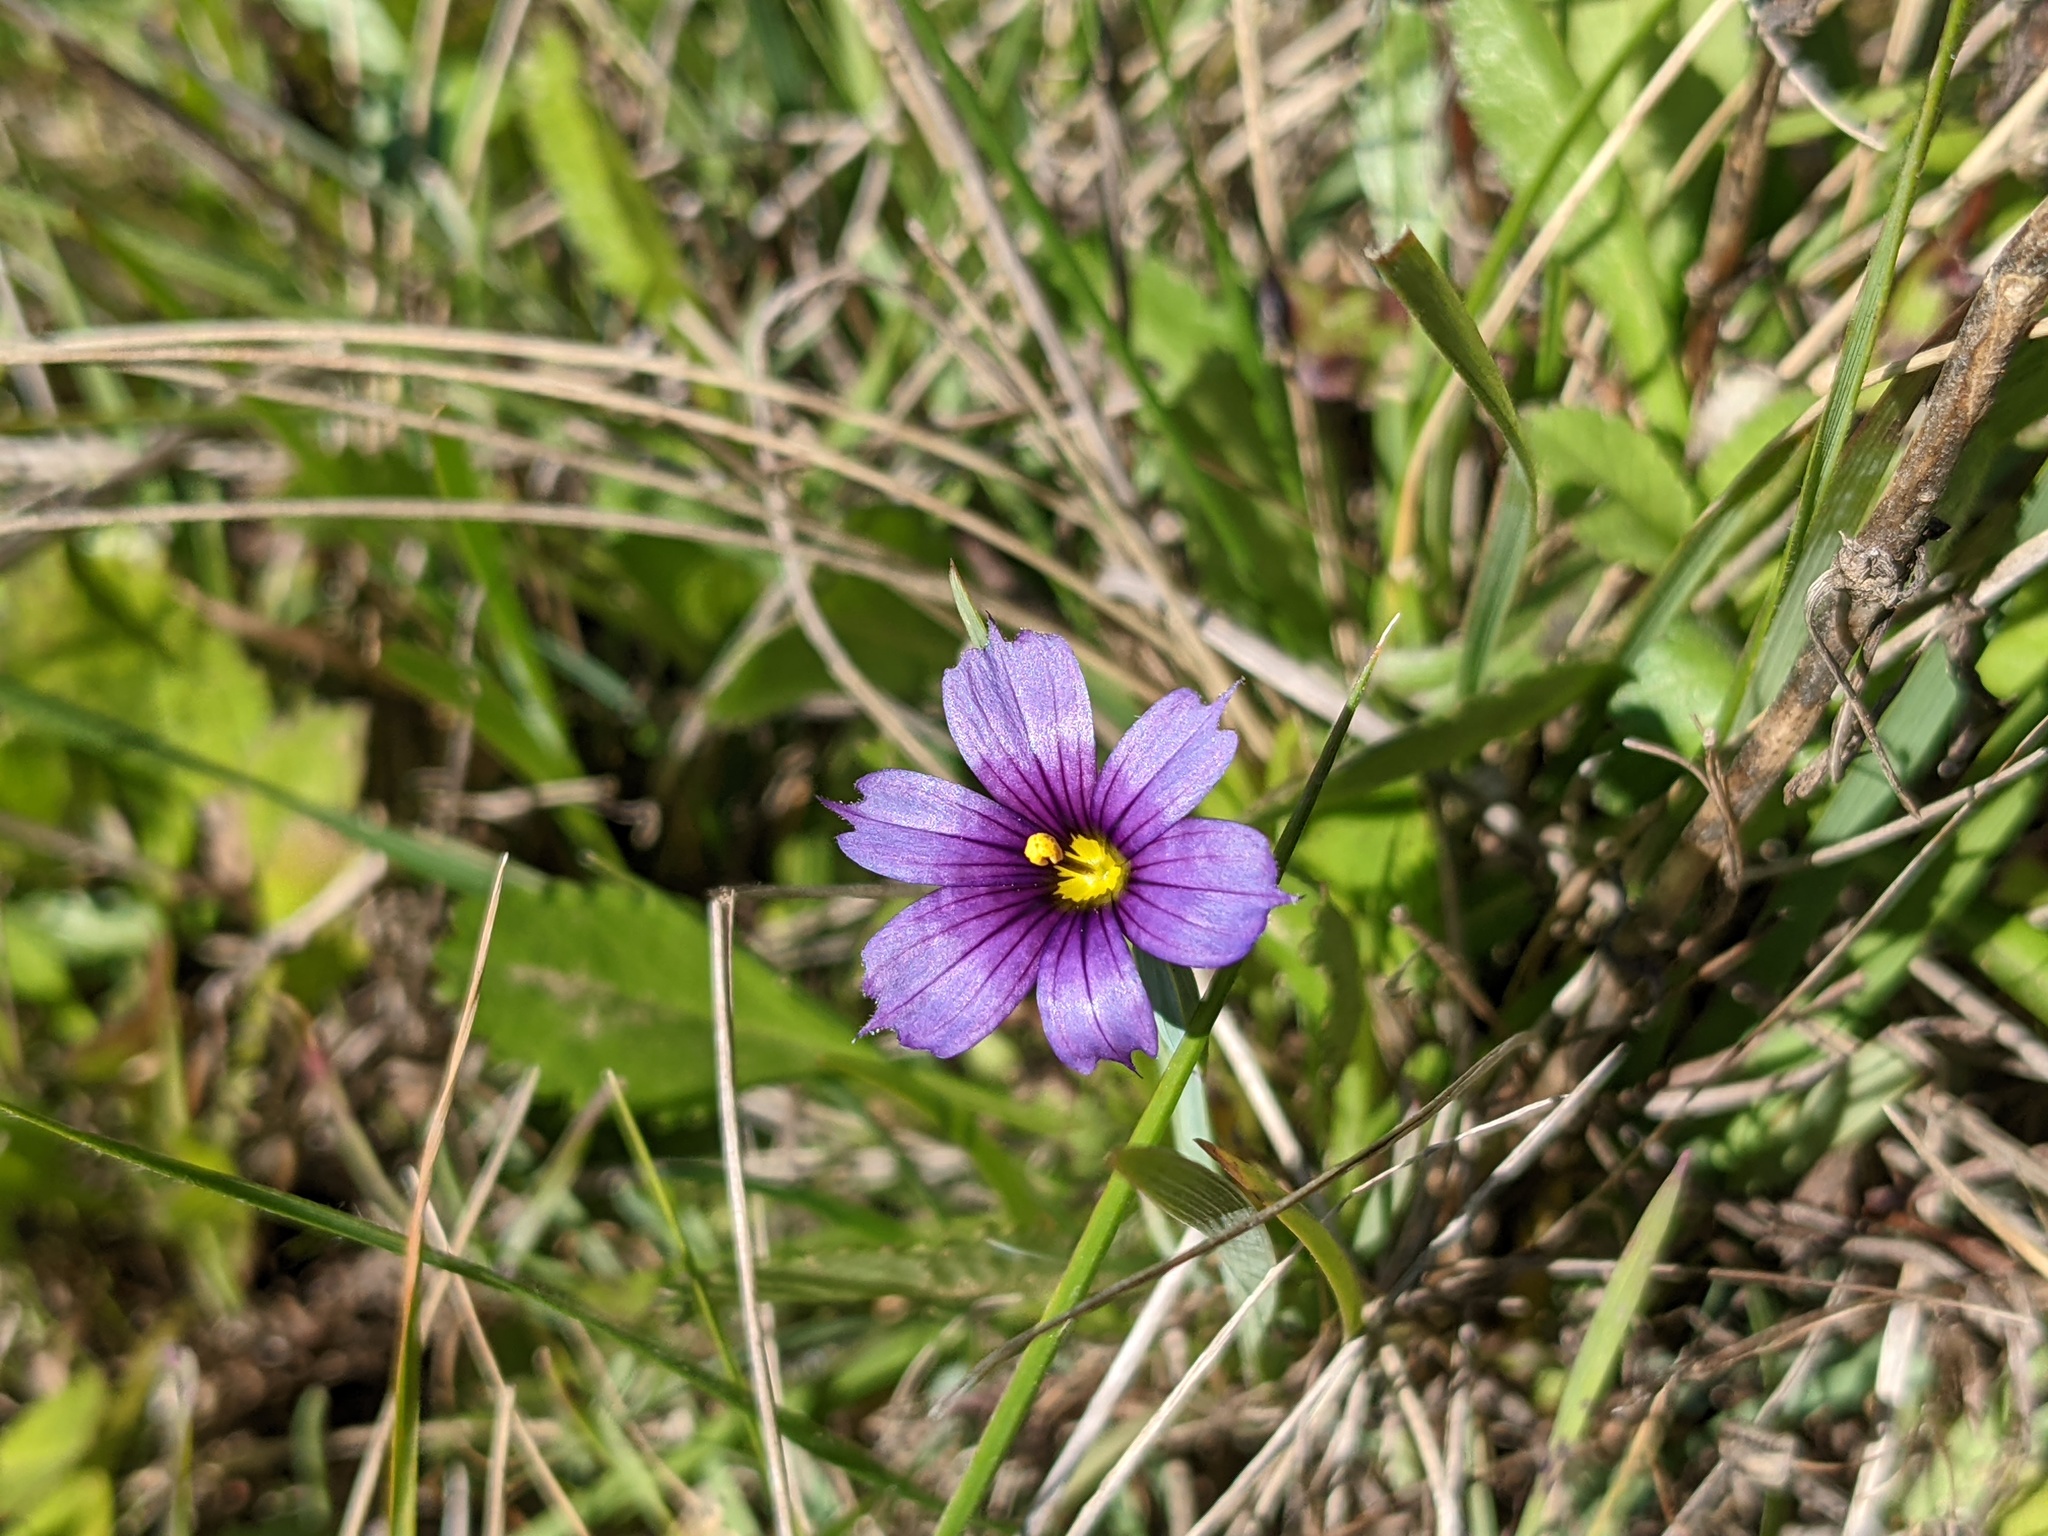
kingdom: Plantae
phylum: Tracheophyta
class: Liliopsida
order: Asparagales
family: Iridaceae
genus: Sisyrinchium
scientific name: Sisyrinchium bellum
